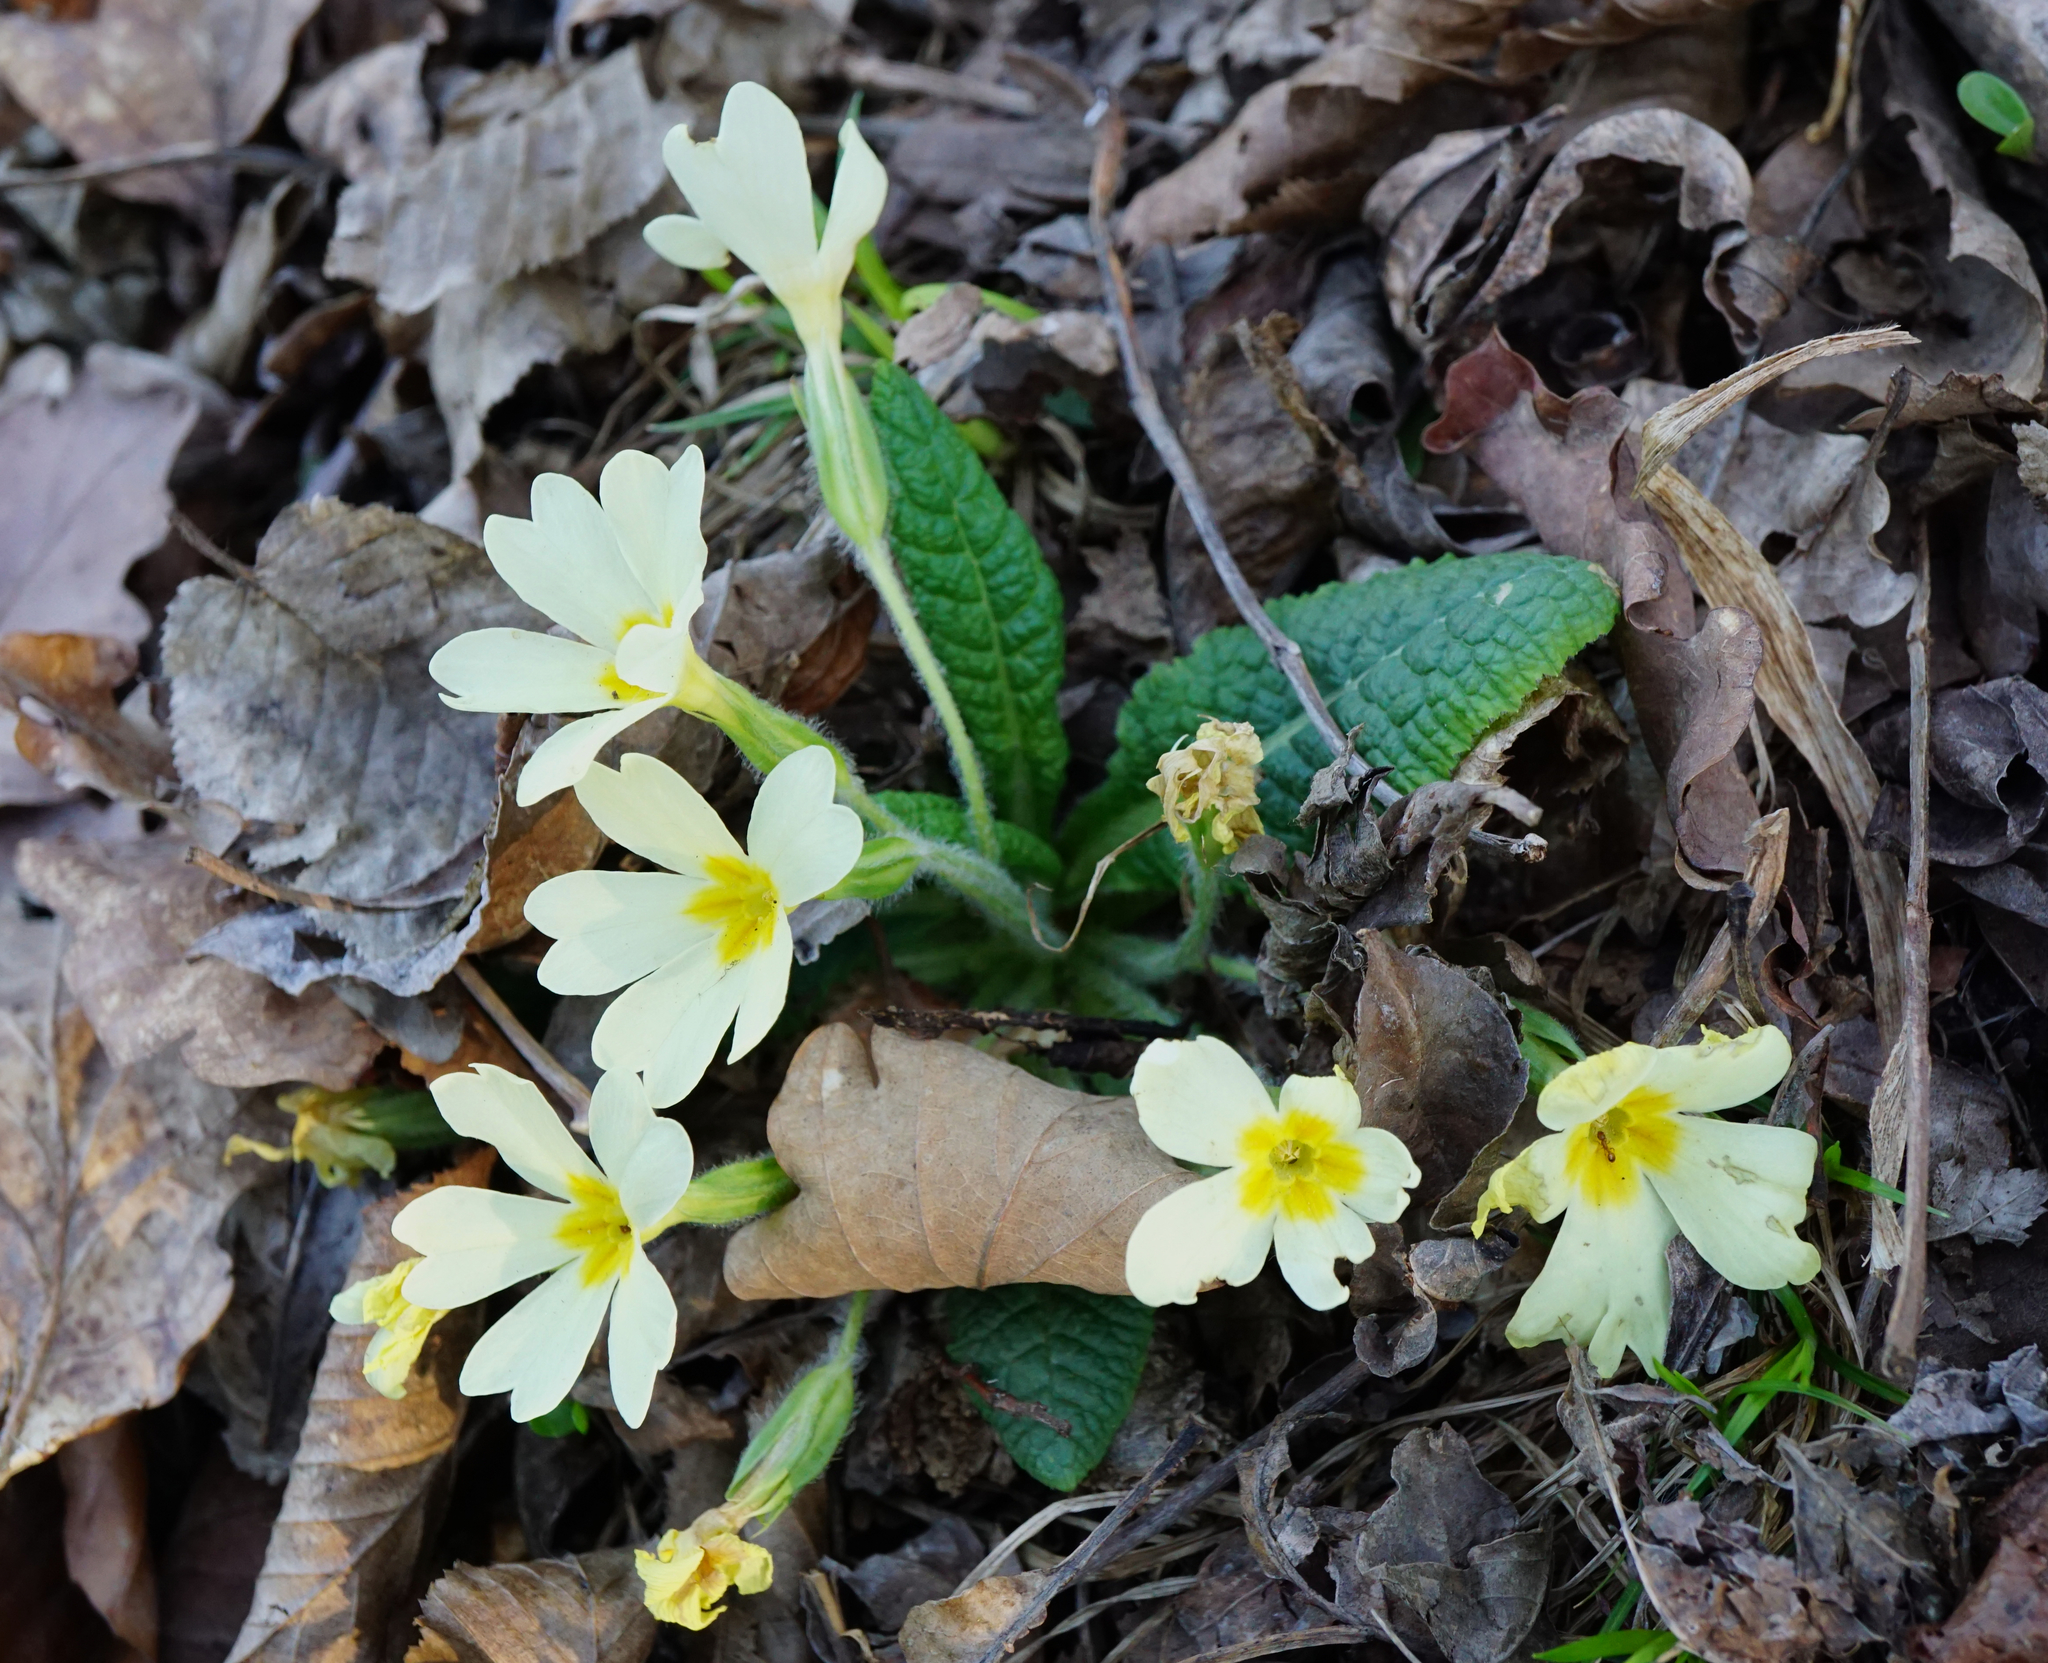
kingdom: Plantae
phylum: Tracheophyta
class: Magnoliopsida
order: Ericales
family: Primulaceae
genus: Primula
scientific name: Primula vulgaris
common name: Primrose
